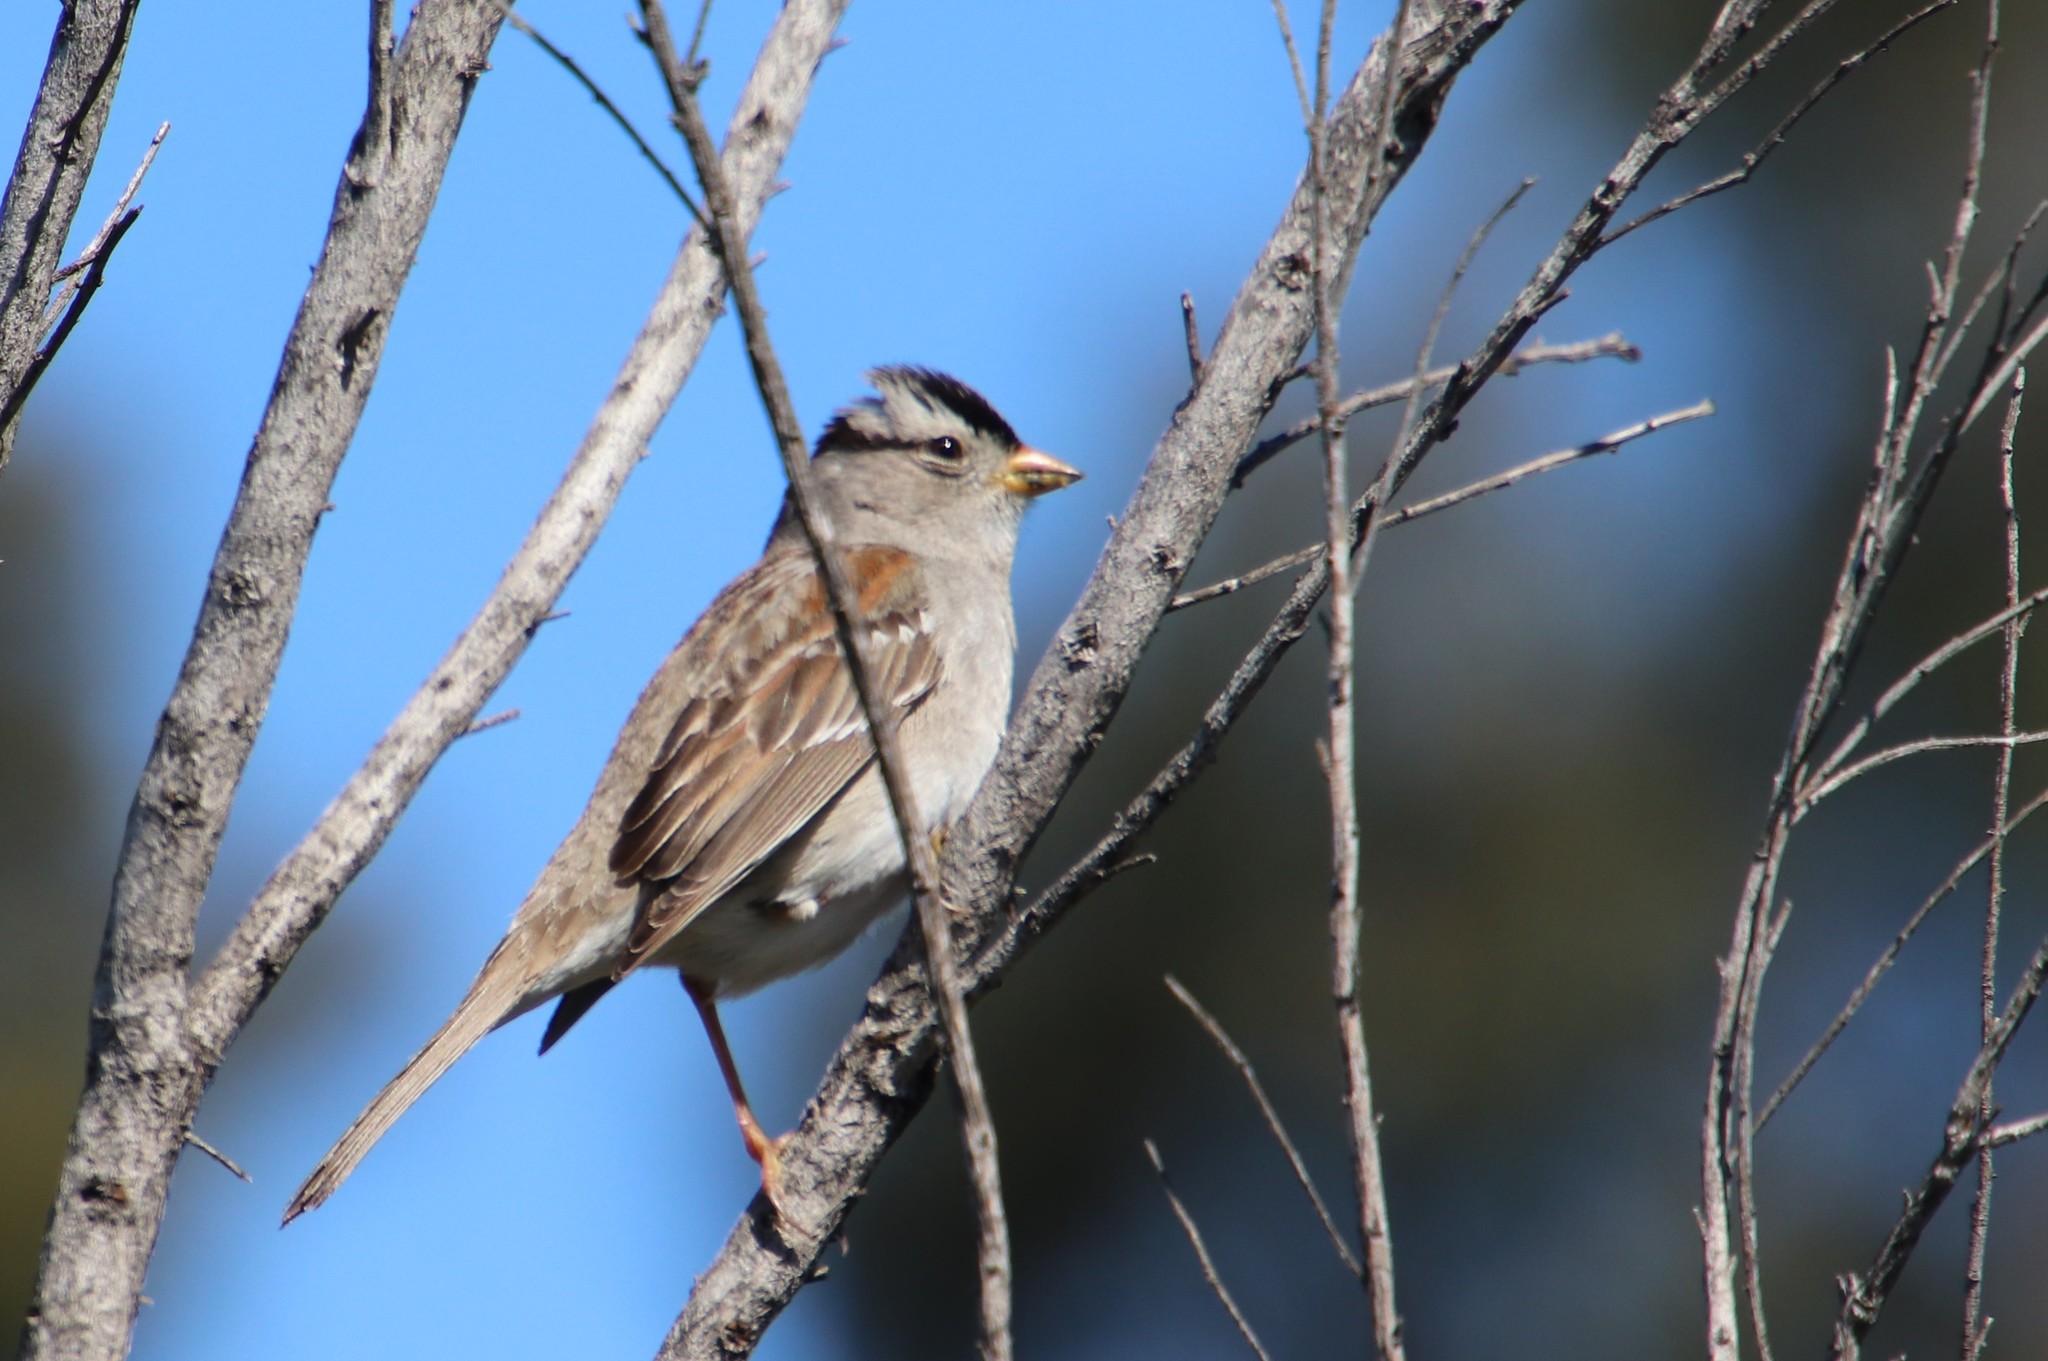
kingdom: Animalia
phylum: Chordata
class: Aves
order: Passeriformes
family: Passerellidae
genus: Zonotrichia
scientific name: Zonotrichia leucophrys
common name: White-crowned sparrow
